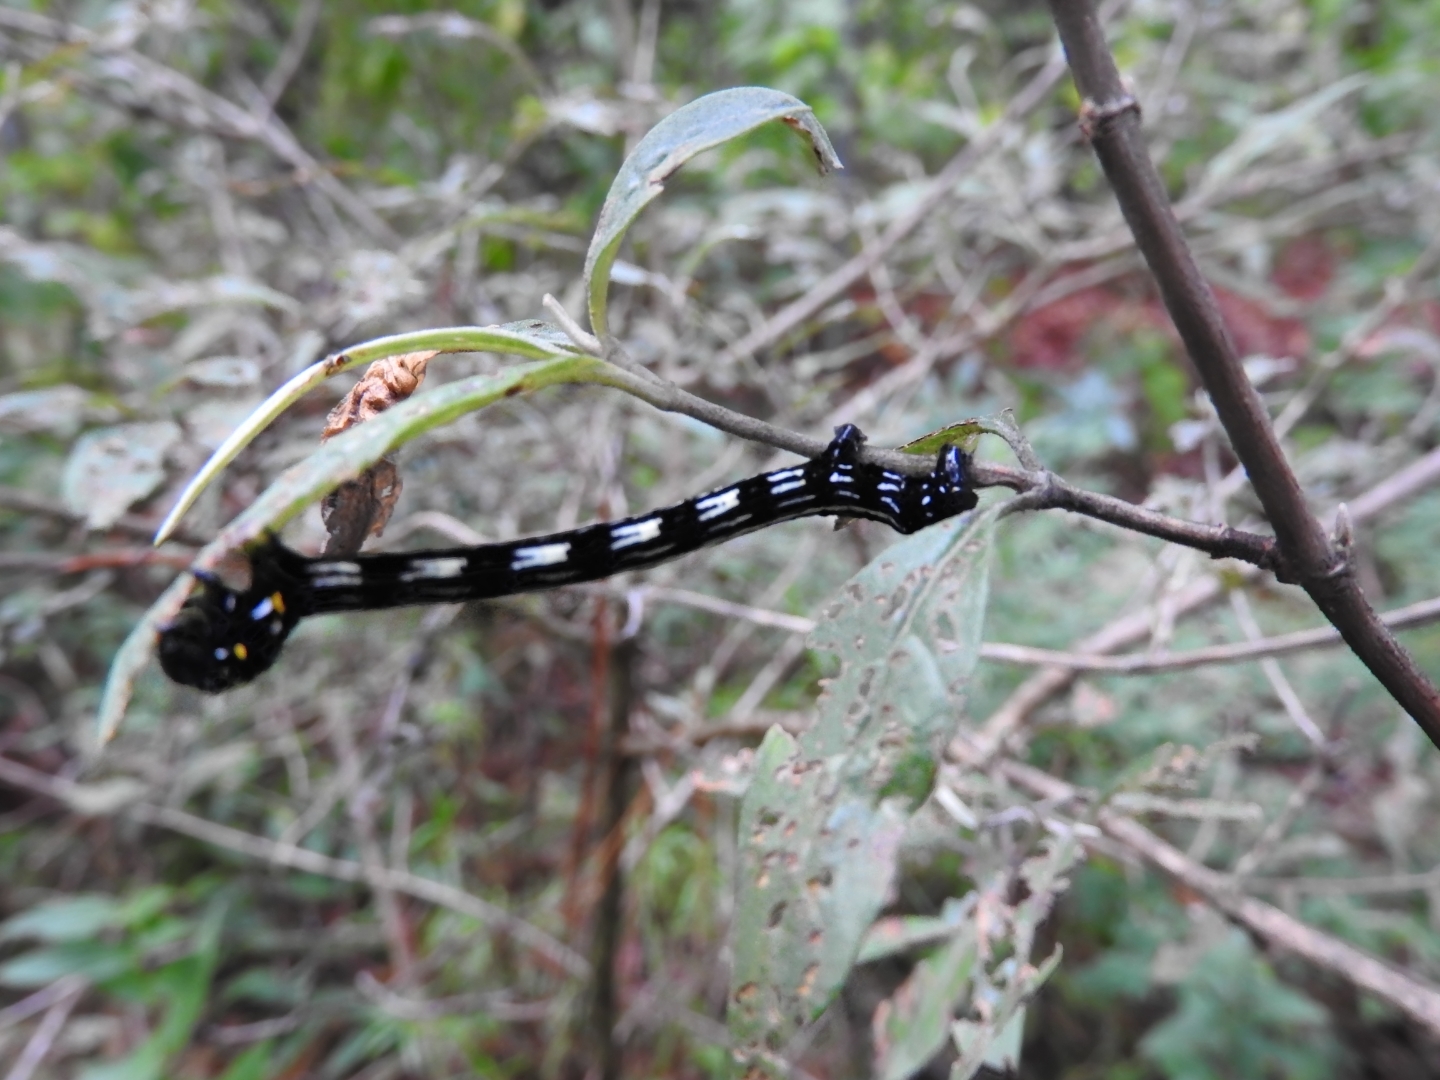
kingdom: Animalia
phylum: Arthropoda
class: Insecta
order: Lepidoptera
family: Geometridae
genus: Acronyctodes
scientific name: Acronyctodes mexicanaria
